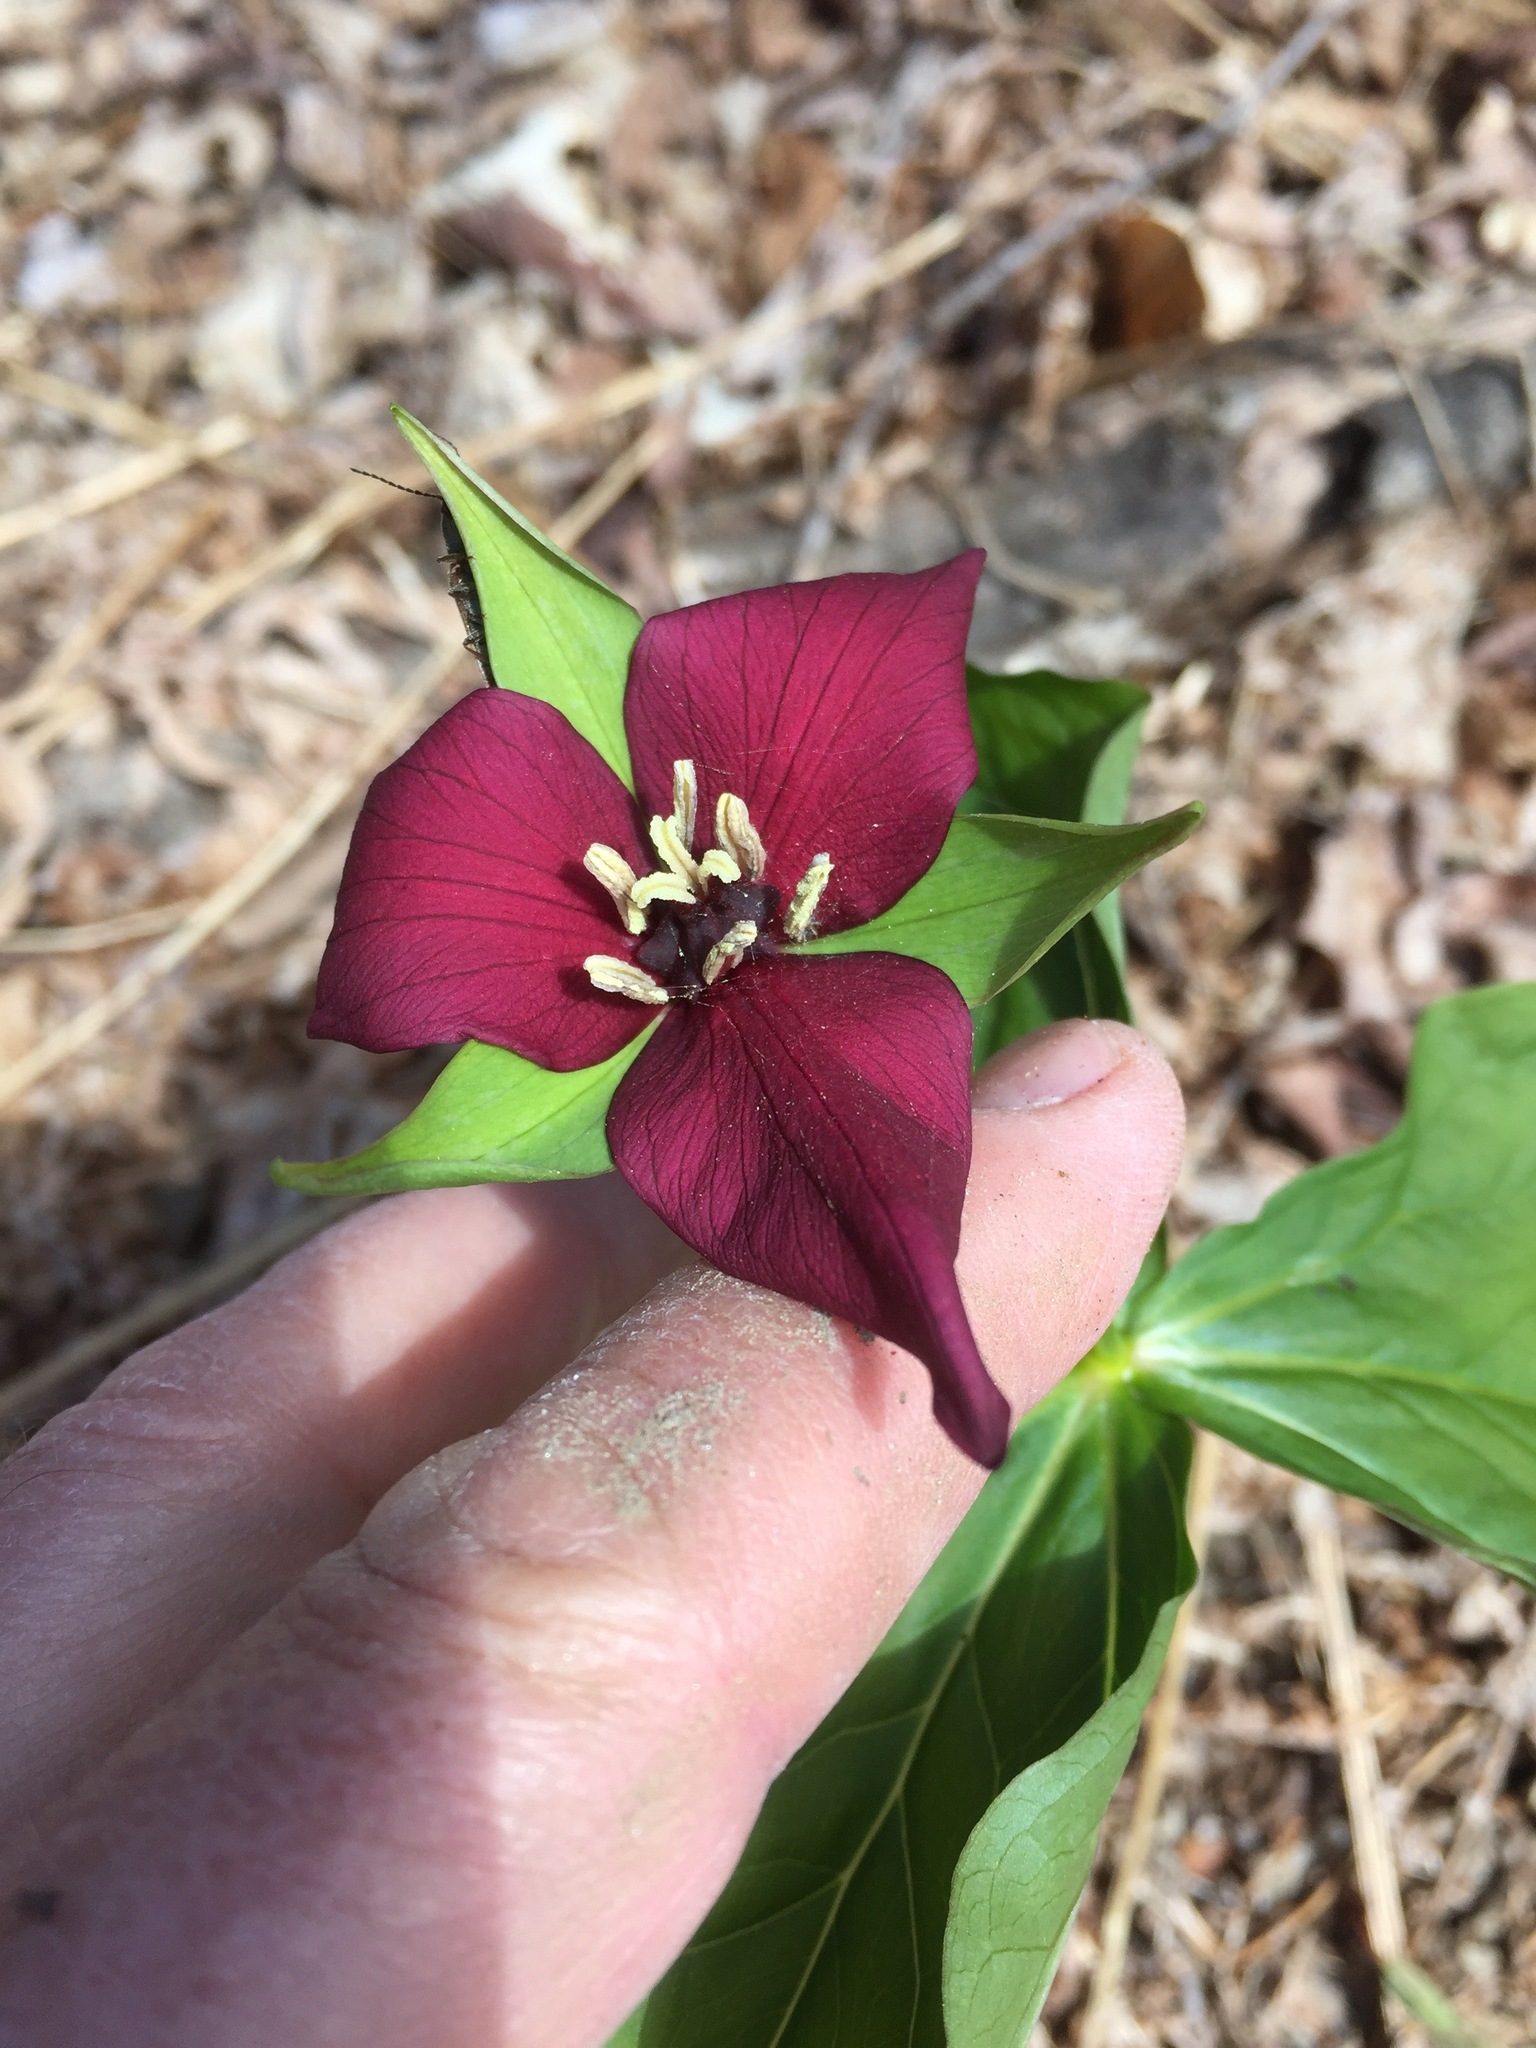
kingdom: Plantae
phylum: Tracheophyta
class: Liliopsida
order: Liliales
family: Melanthiaceae
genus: Trillium
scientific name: Trillium erectum
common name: Purple trillium
